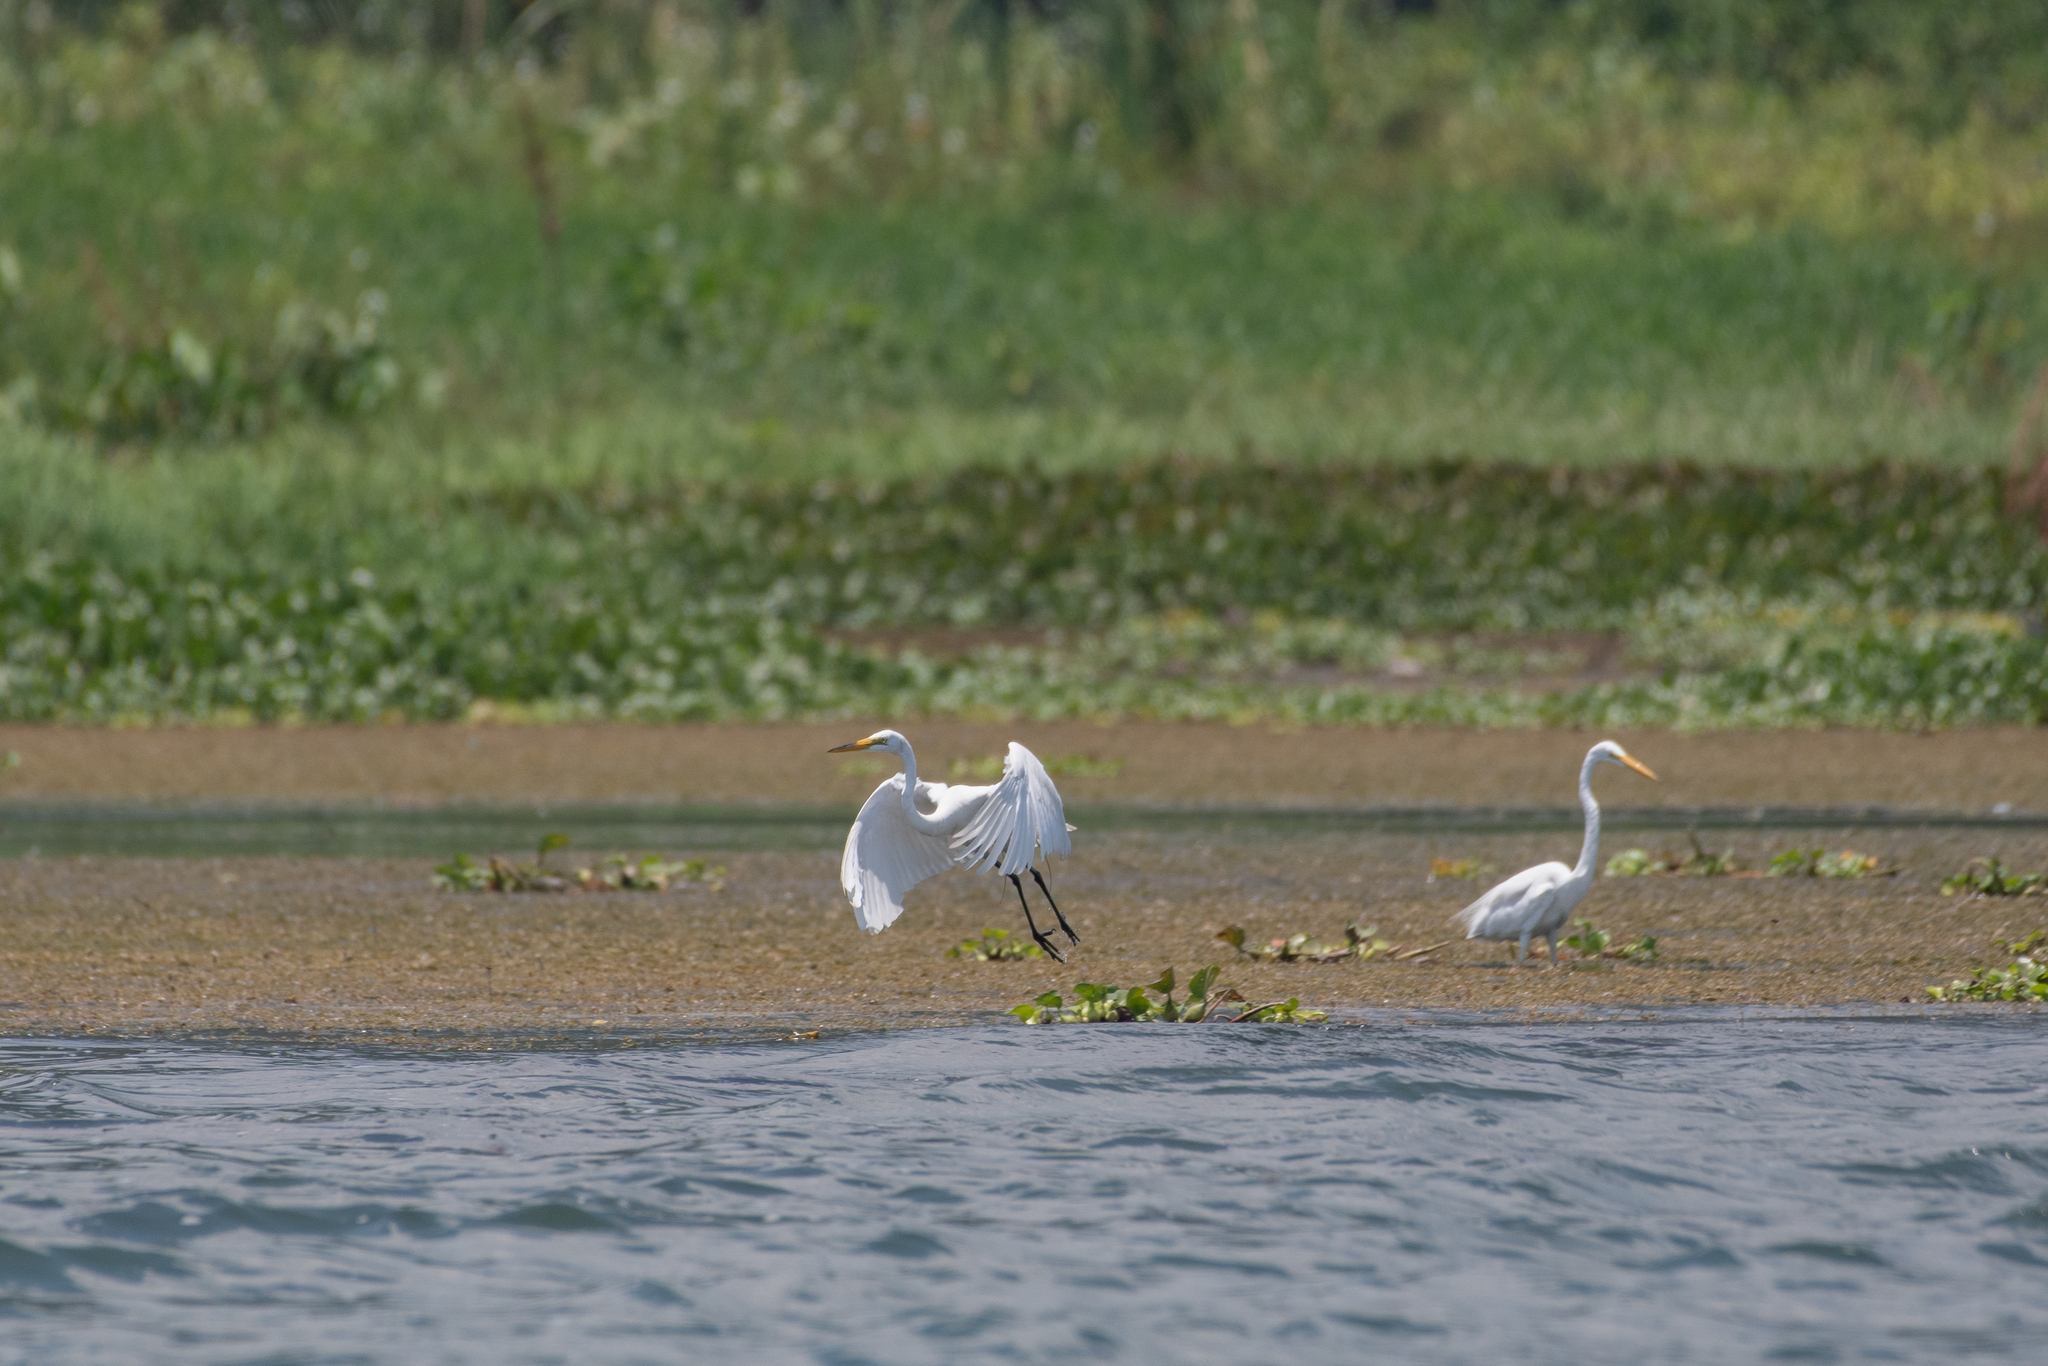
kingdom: Animalia
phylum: Chordata
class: Aves
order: Pelecaniformes
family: Ardeidae
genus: Ardea
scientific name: Ardea alba
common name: Great egret
